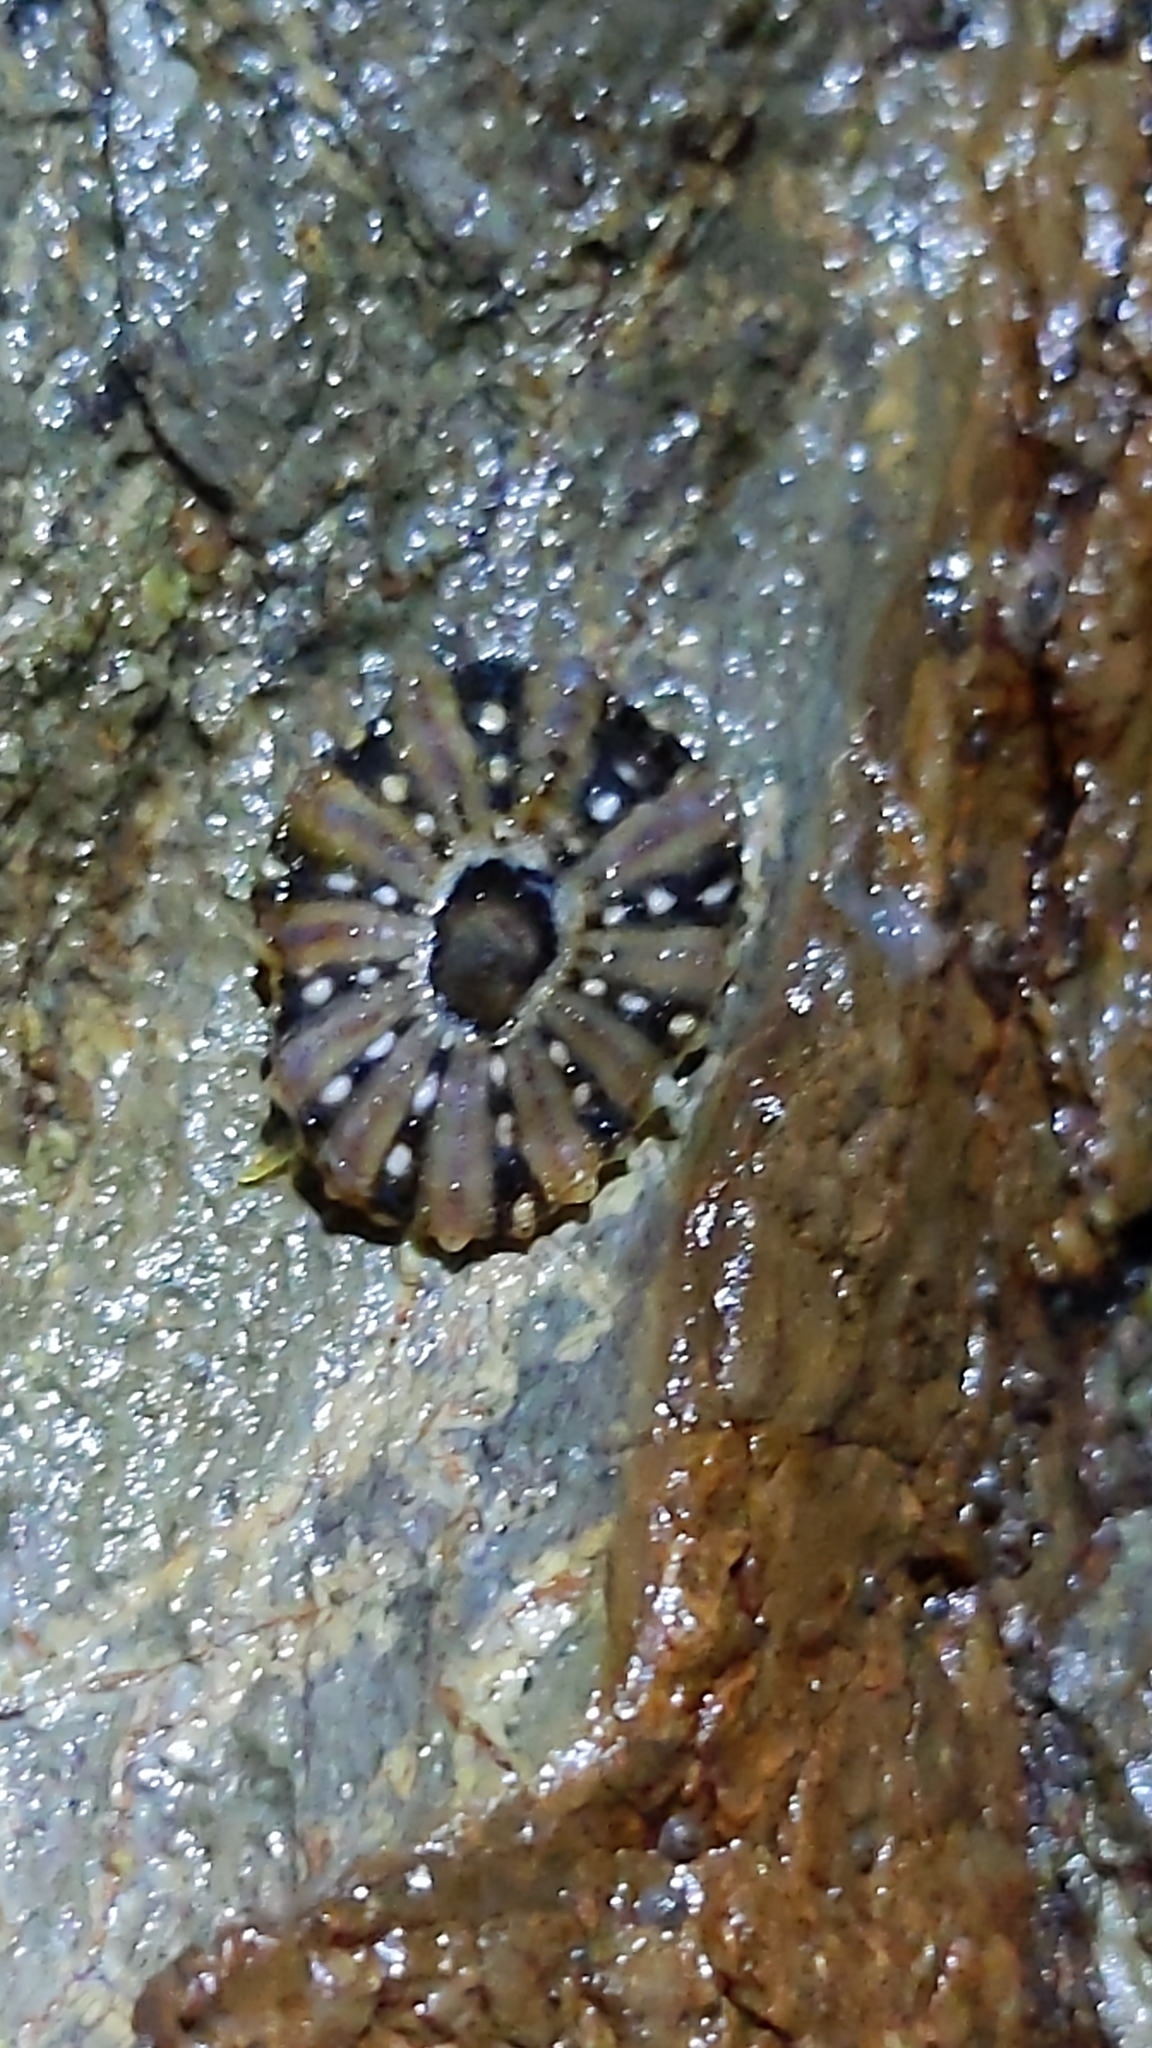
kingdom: Animalia
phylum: Mollusca
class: Gastropoda
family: Nacellidae
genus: Cellana
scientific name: Cellana ornata
